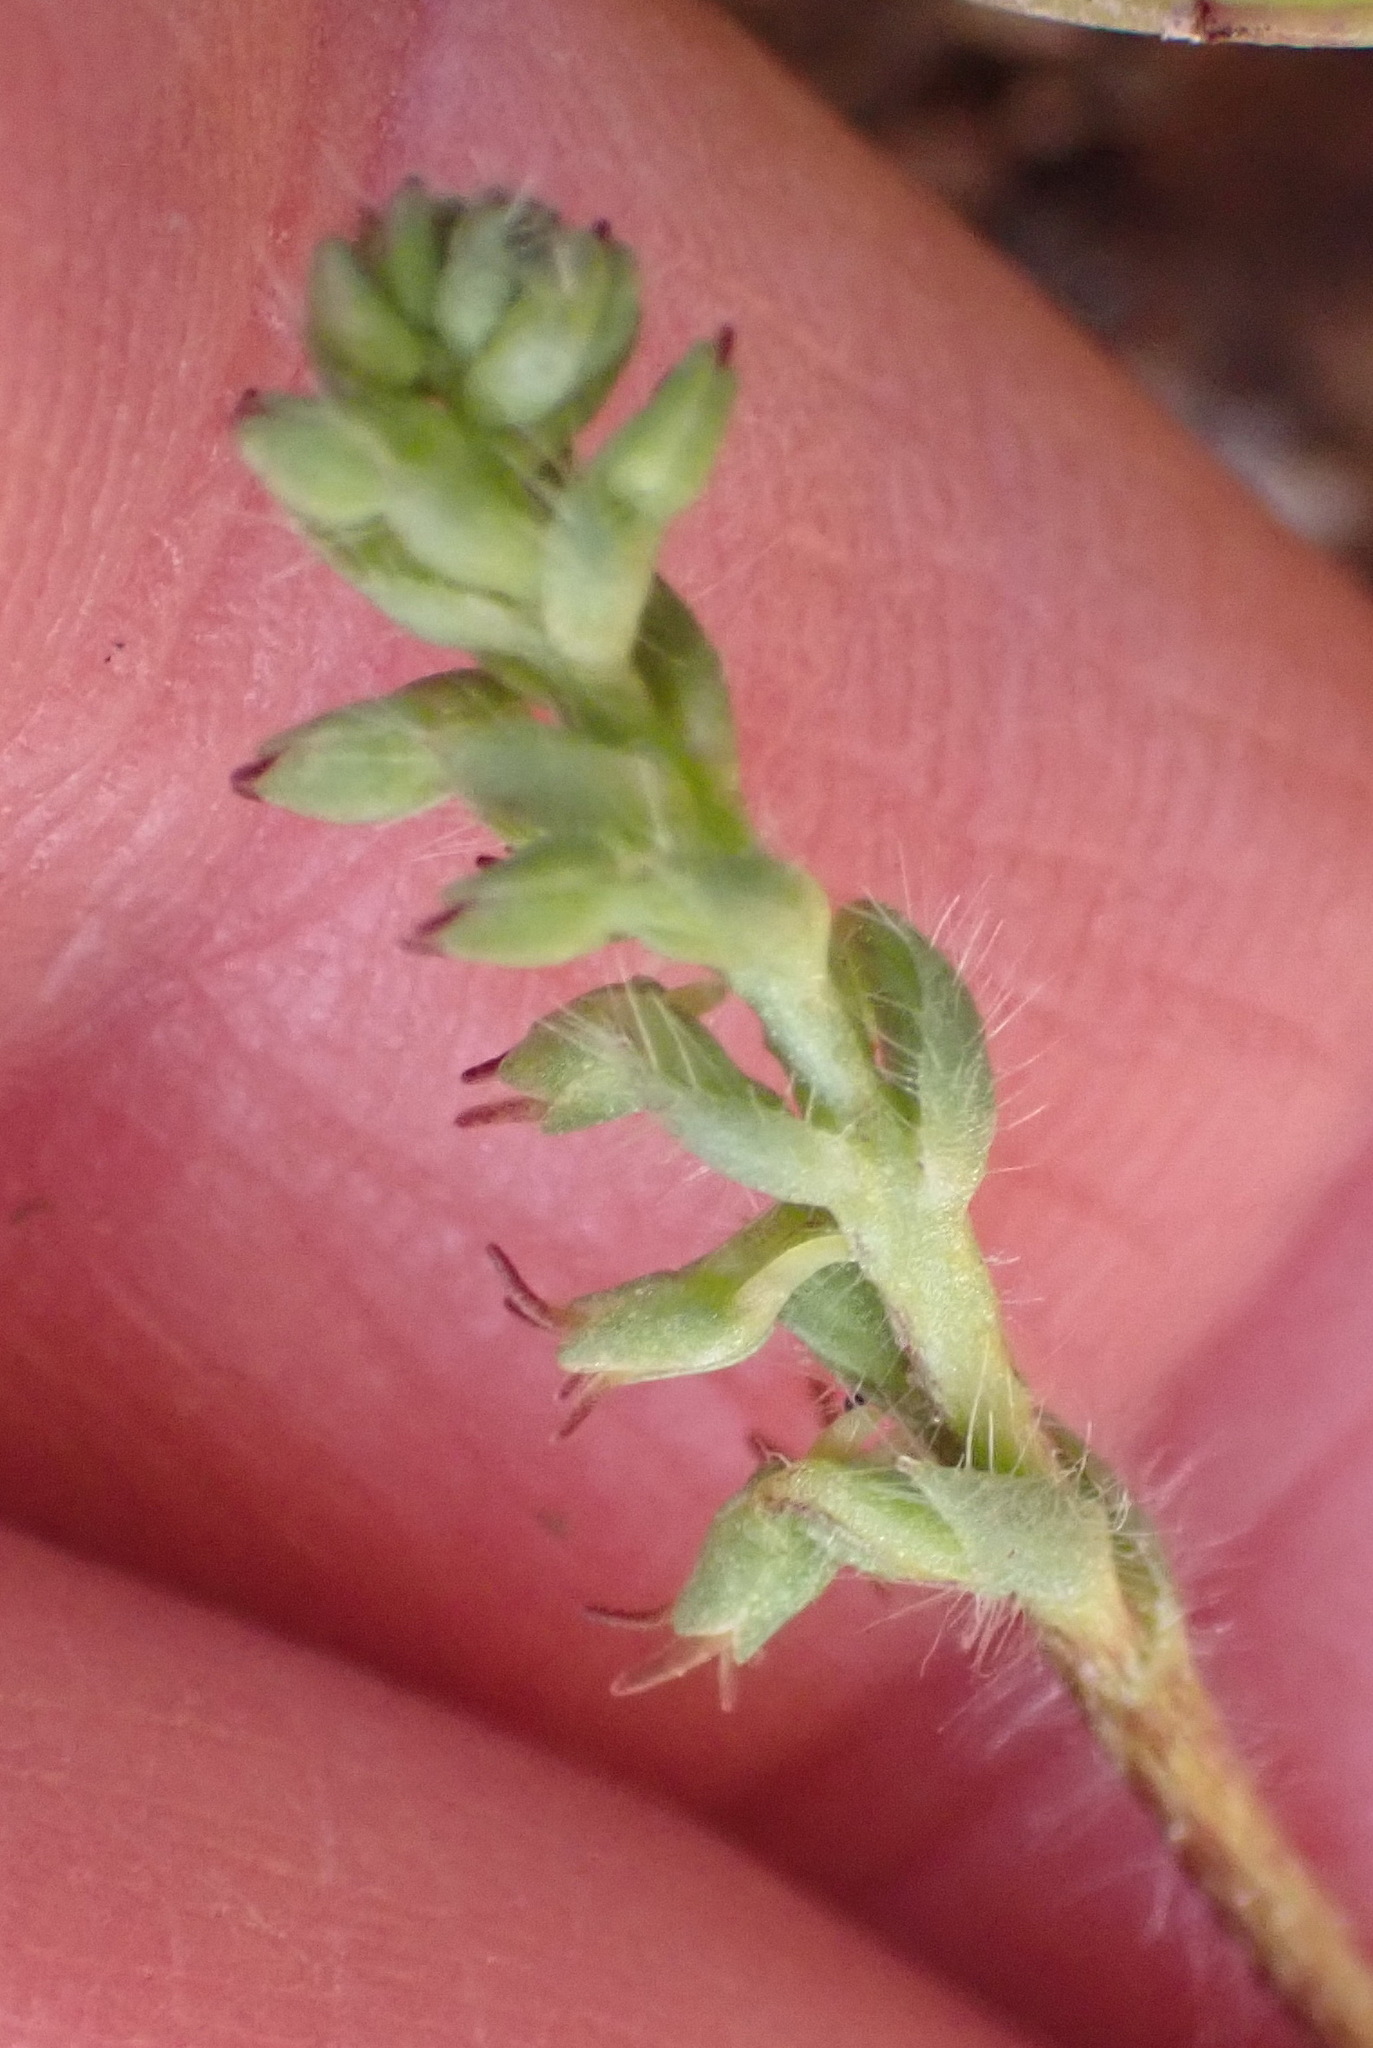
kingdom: Plantae
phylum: Tracheophyta
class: Liliopsida
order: Asparagales
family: Orchidaceae
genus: Holothrix
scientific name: Holothrix villosa
